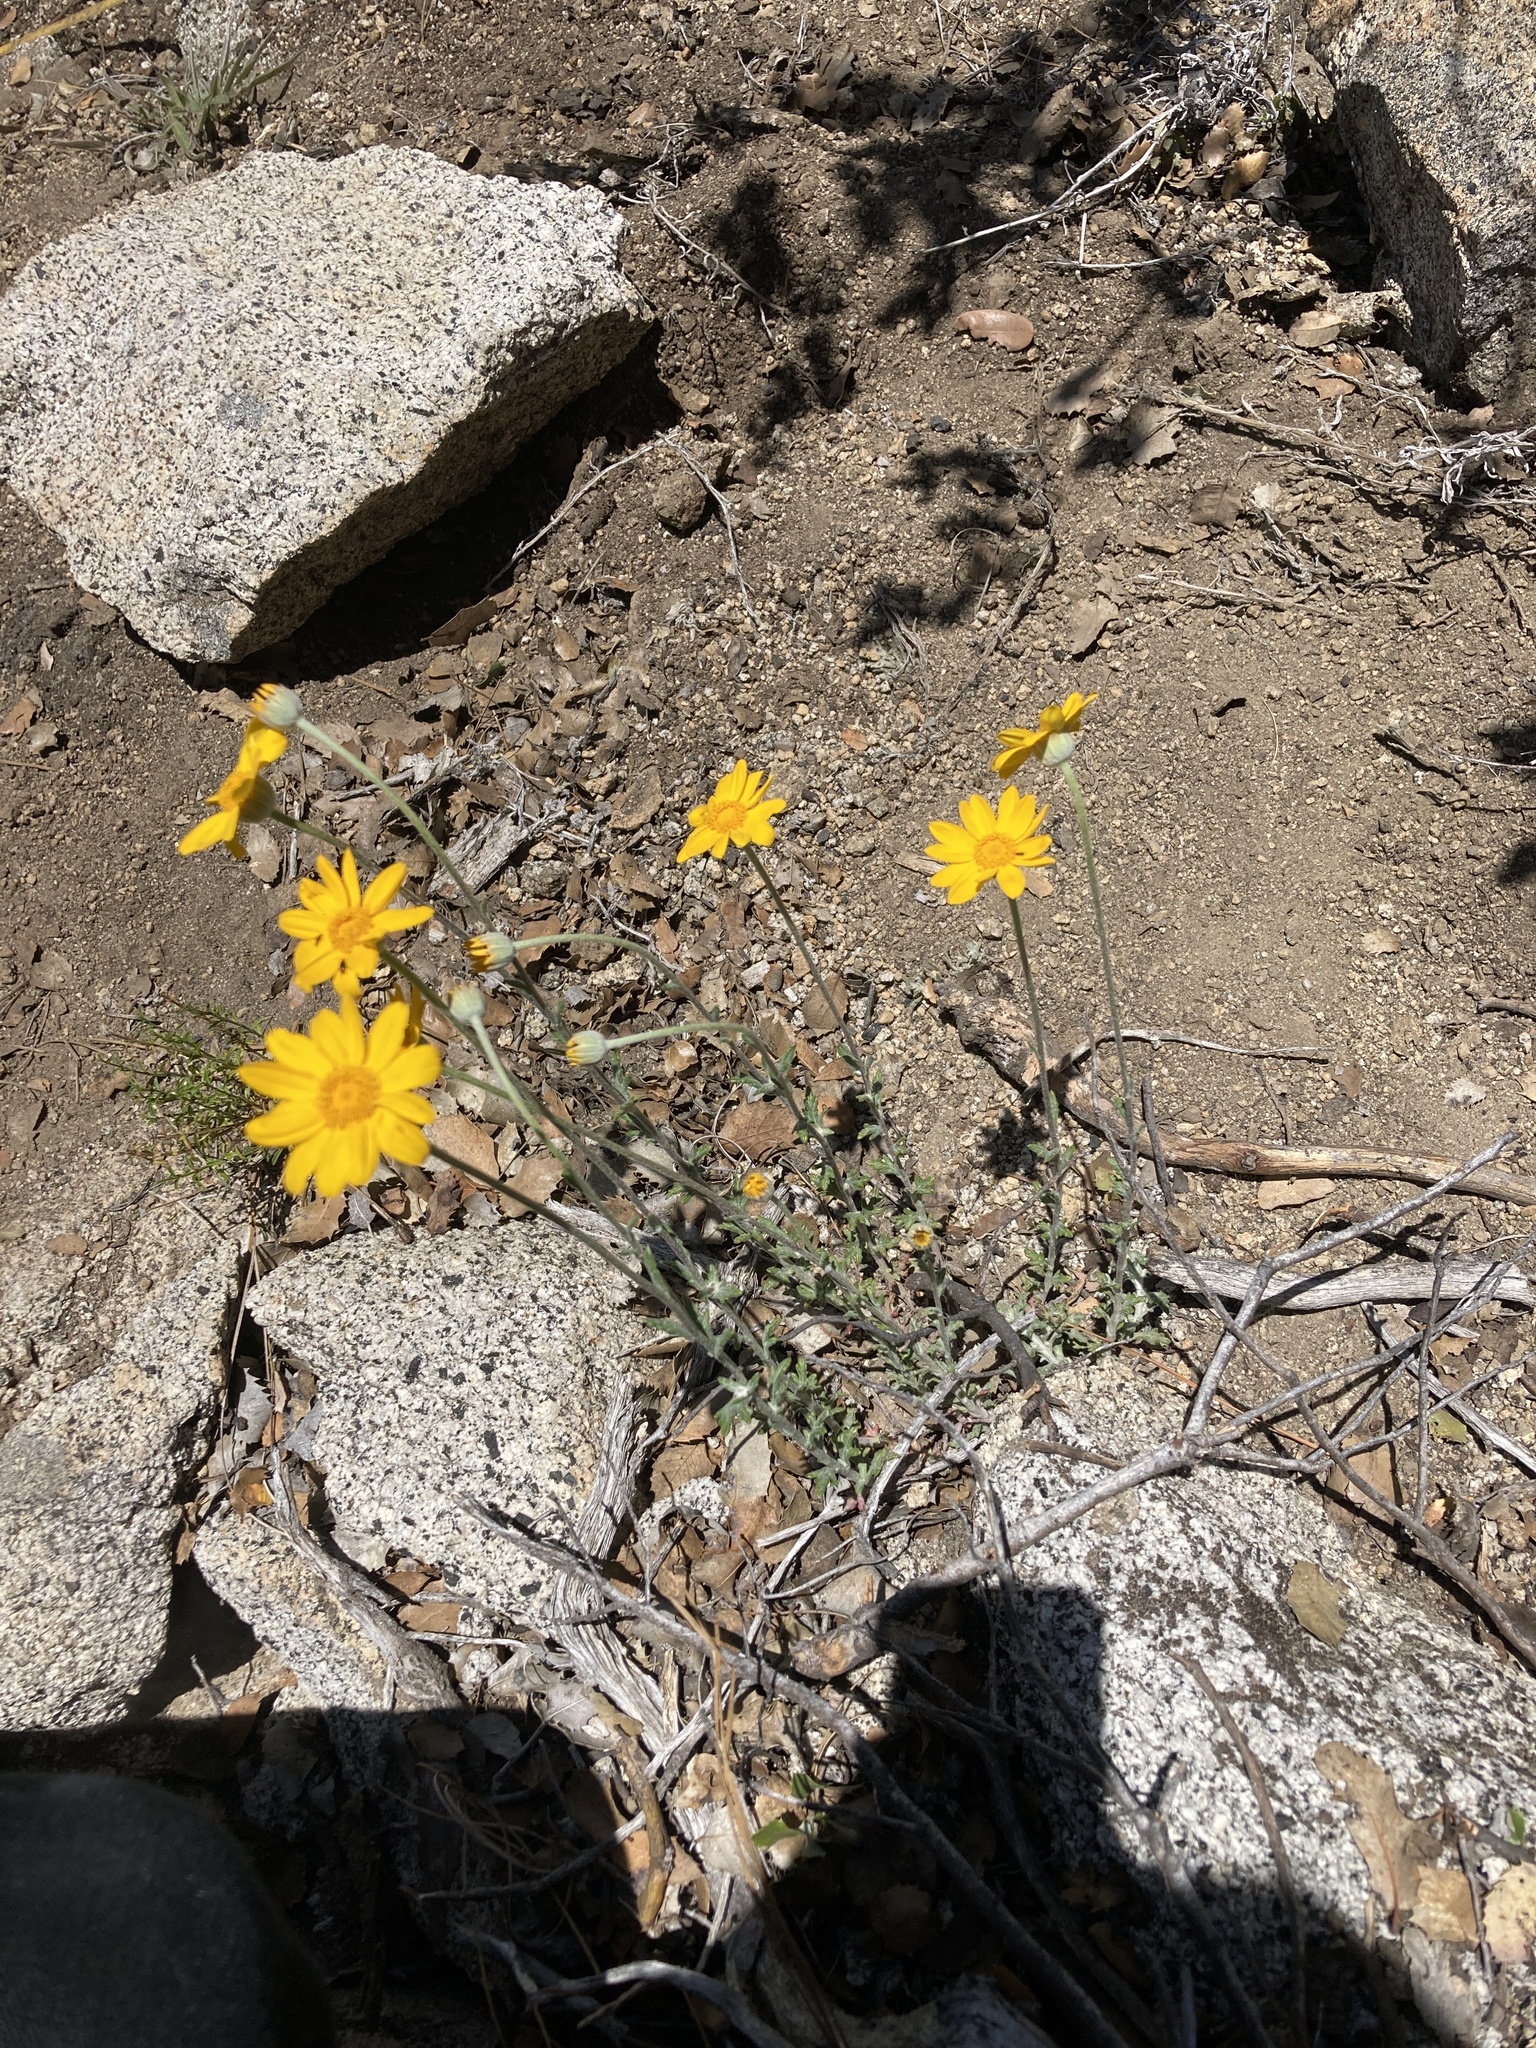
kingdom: Plantae
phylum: Tracheophyta
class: Magnoliopsida
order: Asterales
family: Asteraceae
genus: Eriophyllum
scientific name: Eriophyllum lanatum
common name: Common woolly-sunflower
